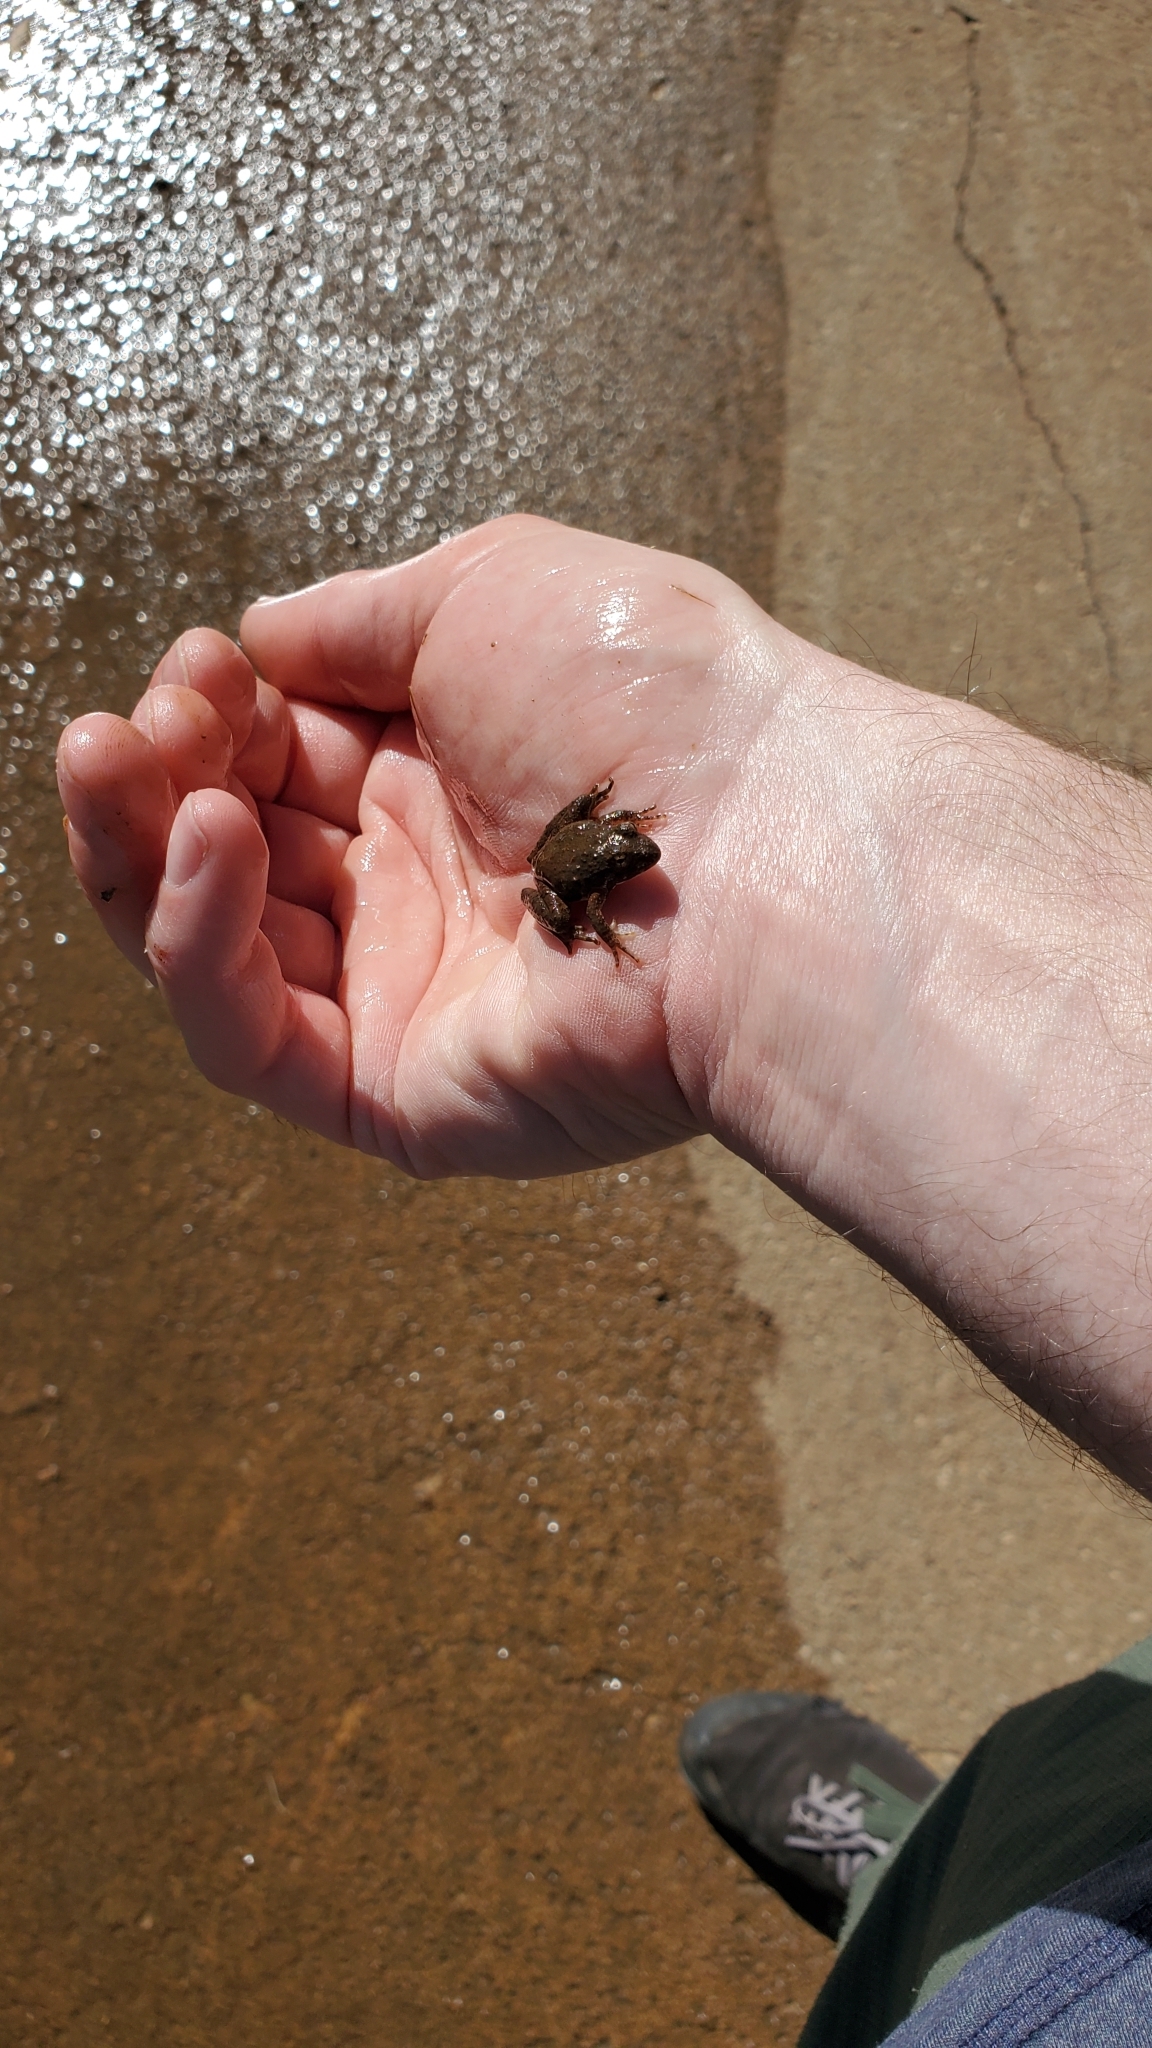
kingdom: Animalia
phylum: Chordata
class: Amphibia
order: Anura
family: Hylidae
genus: Acris
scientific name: Acris blanchardi
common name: Blanchard's cricket frog
